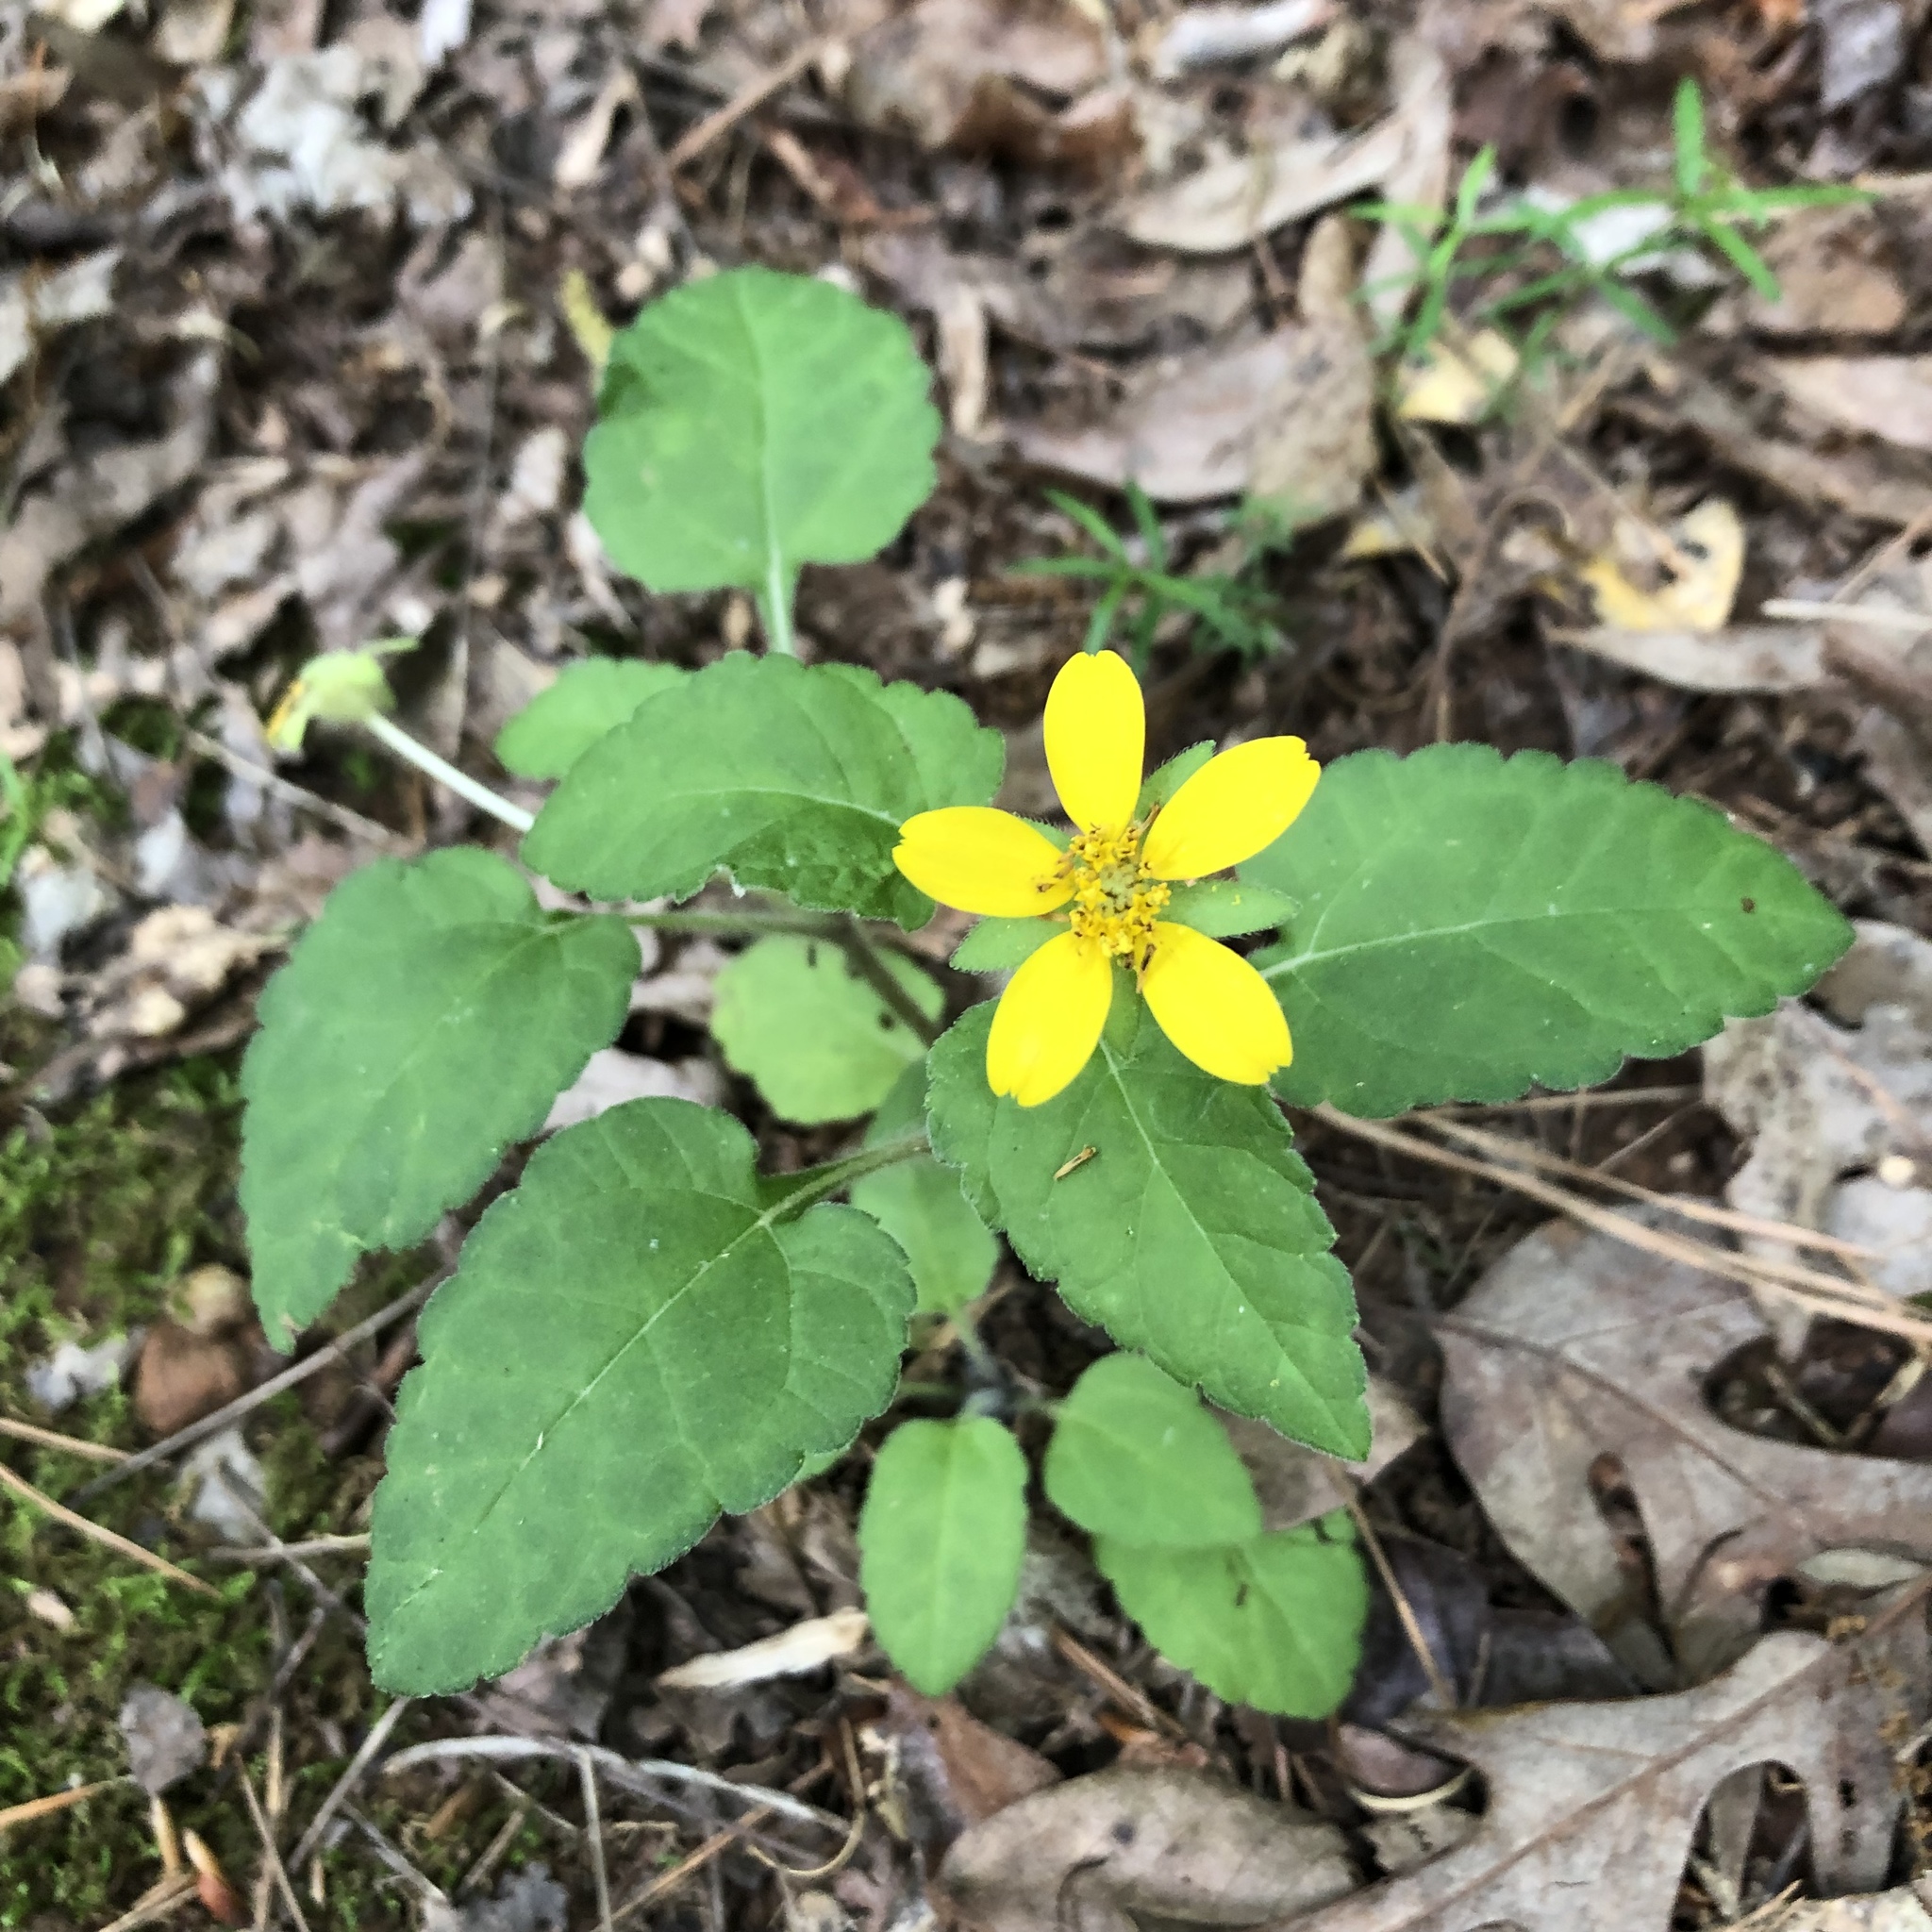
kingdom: Plantae
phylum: Tracheophyta
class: Magnoliopsida
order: Asterales
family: Asteraceae
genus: Chrysogonum
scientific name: Chrysogonum virginianum
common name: Golden-knee
